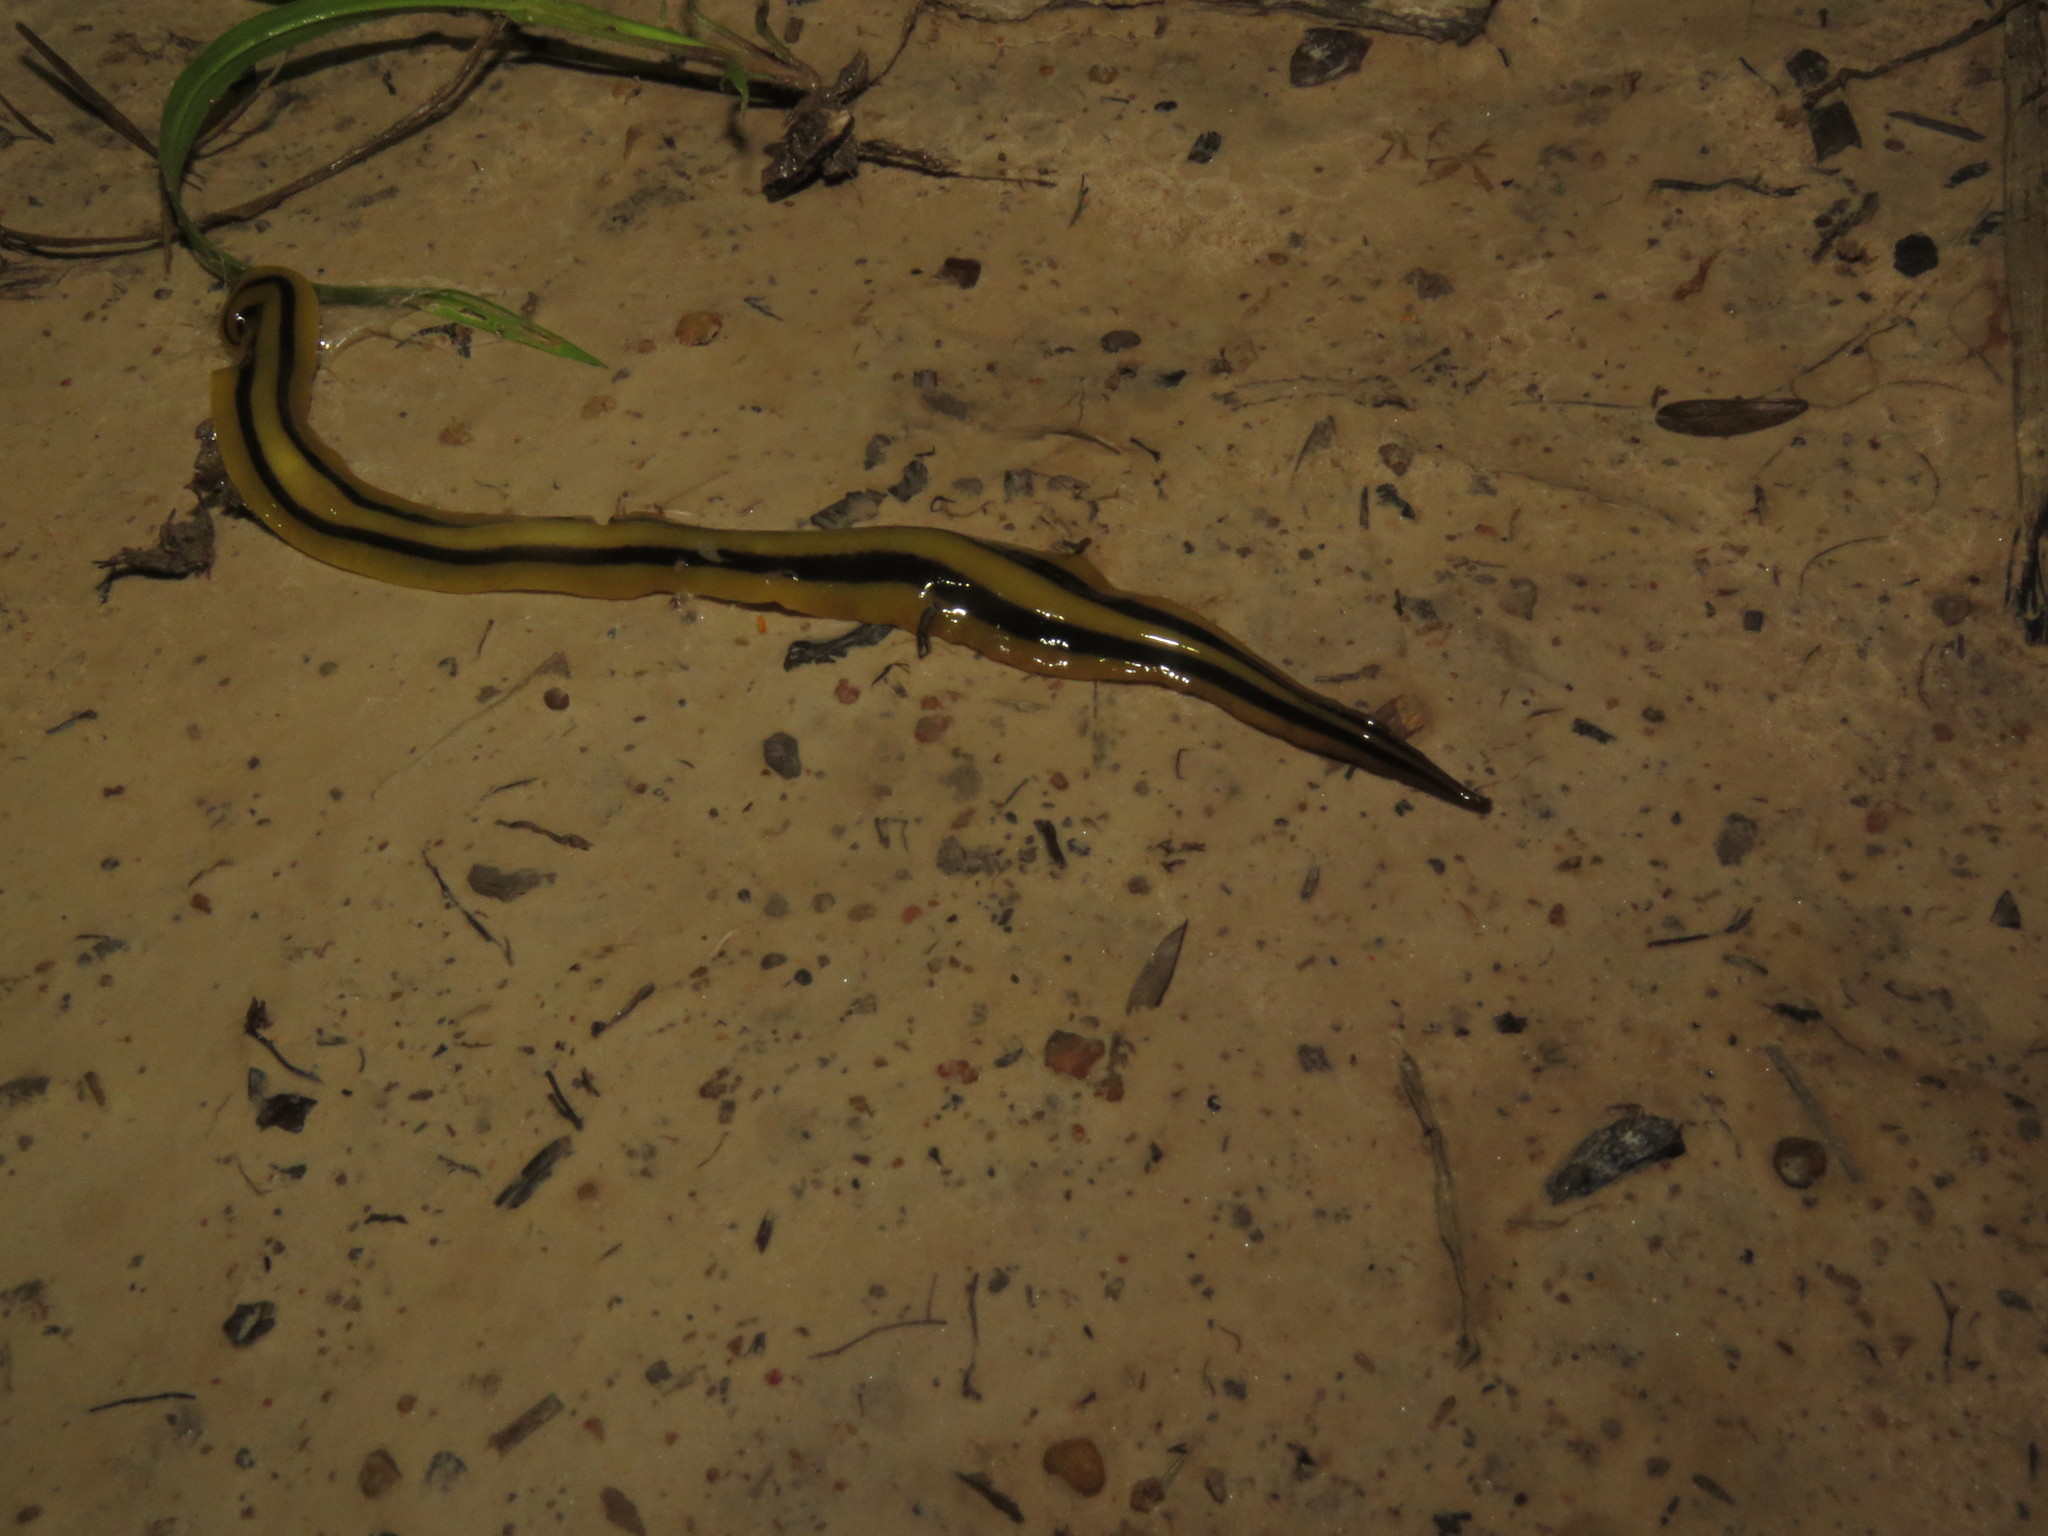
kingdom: Animalia
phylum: Platyhelminthes
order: Tricladida
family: Geoplanidae
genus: Pseudogeoplana
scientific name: Pseudogeoplana bilineata
